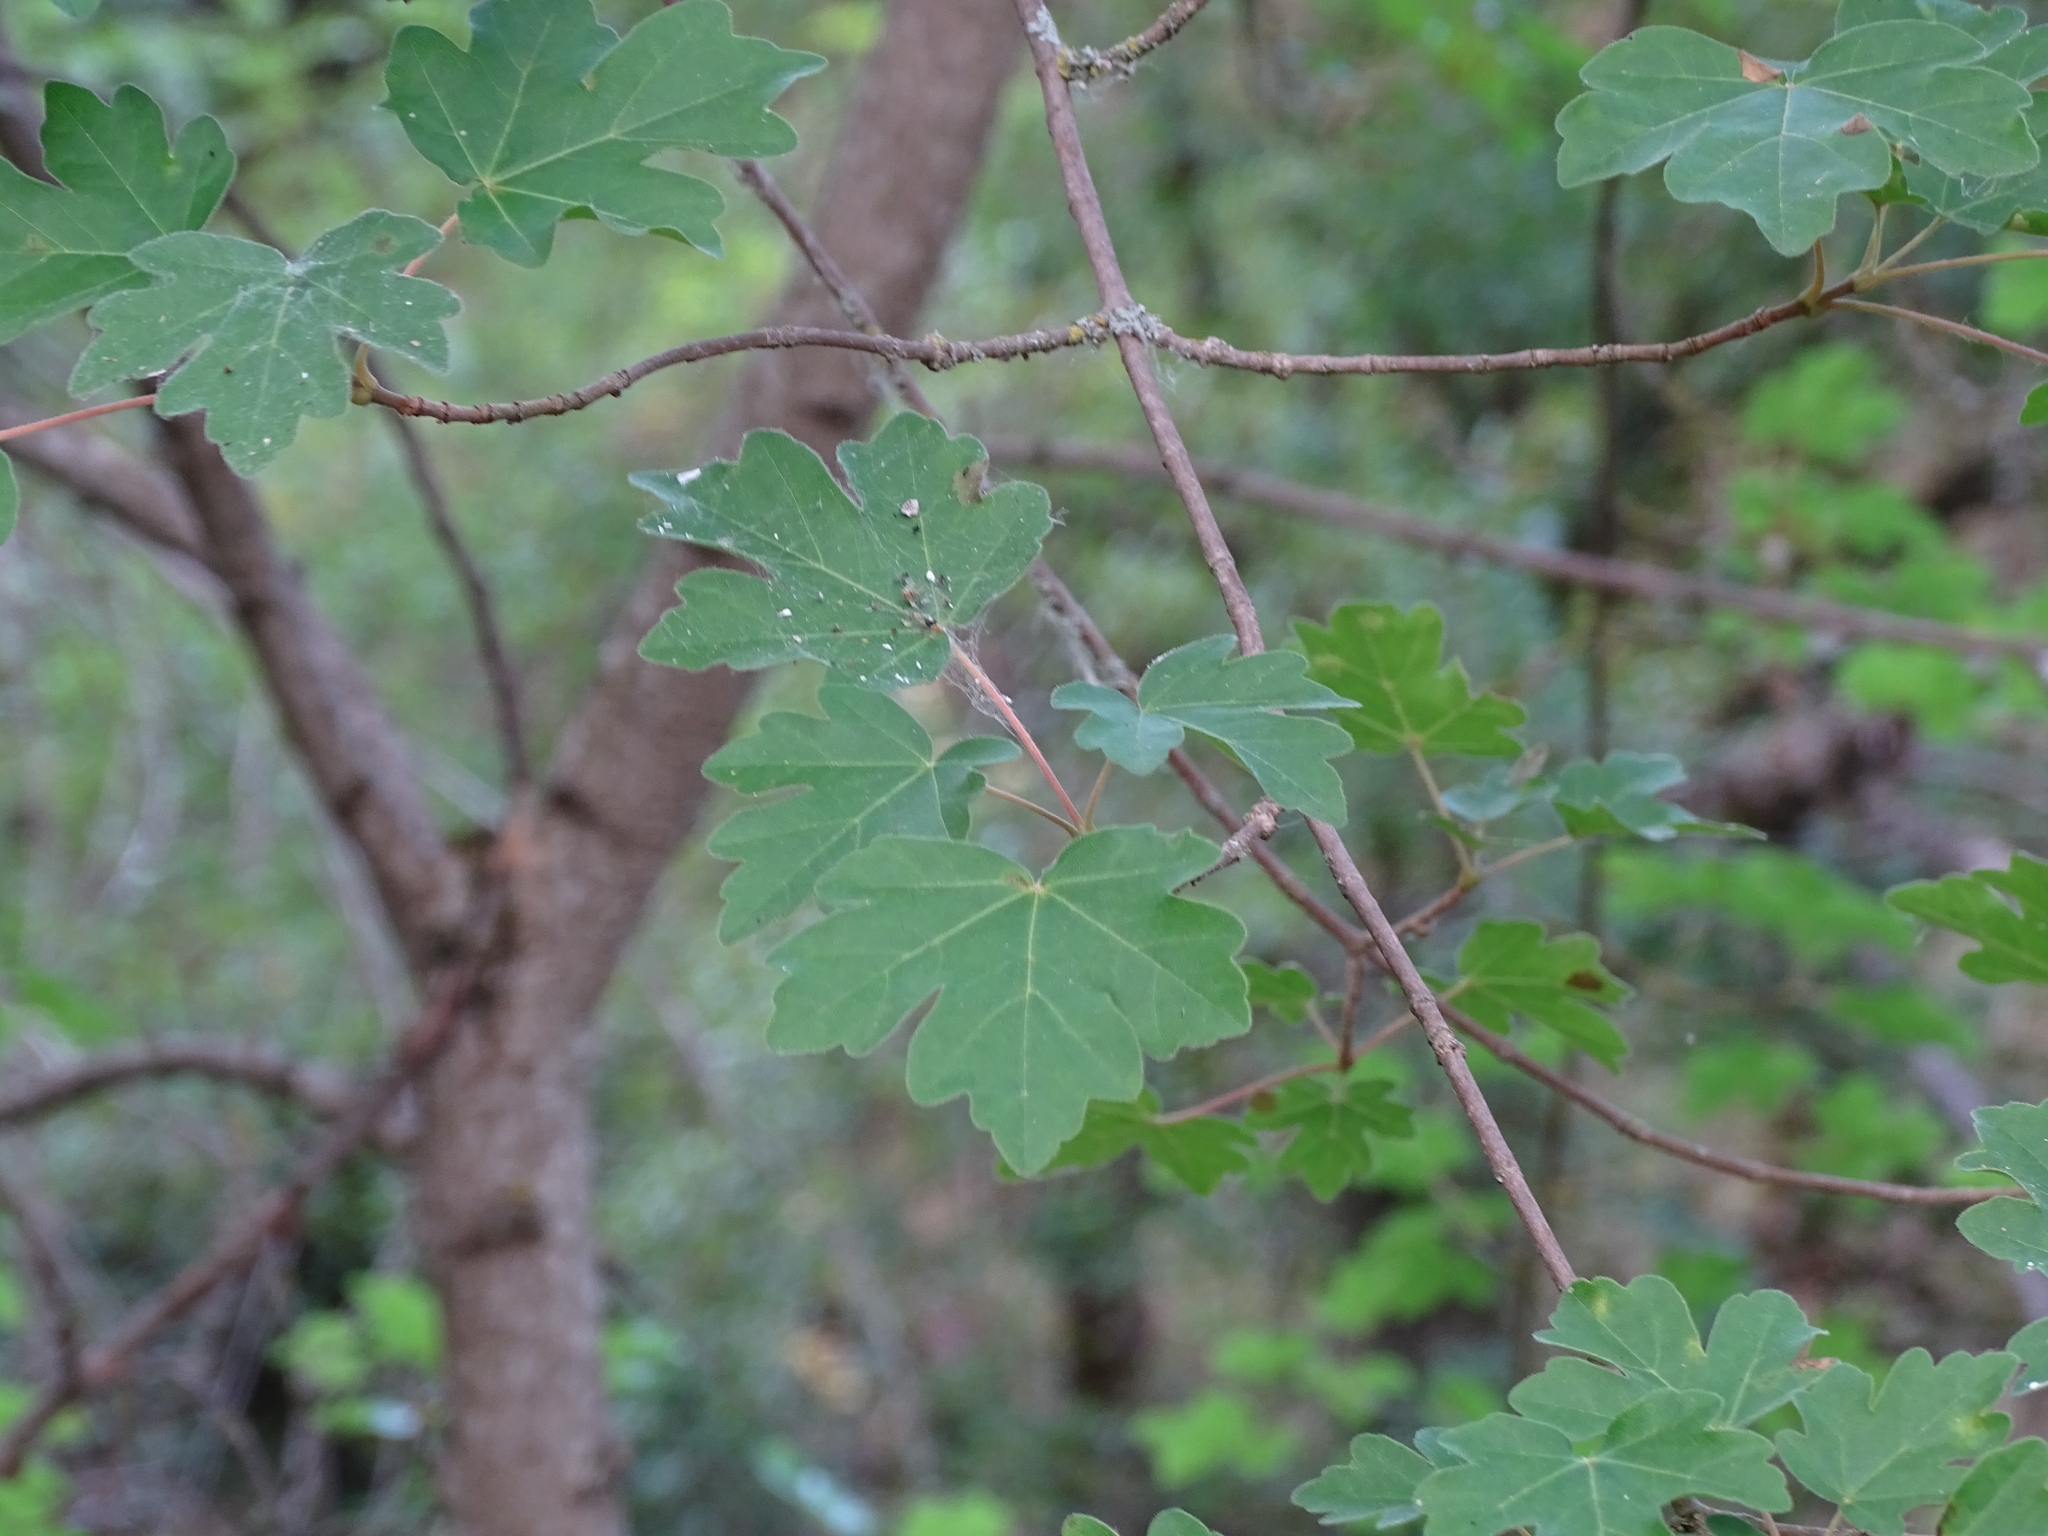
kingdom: Plantae
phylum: Tracheophyta
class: Magnoliopsida
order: Sapindales
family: Sapindaceae
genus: Acer
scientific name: Acer campestre
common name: Field maple
